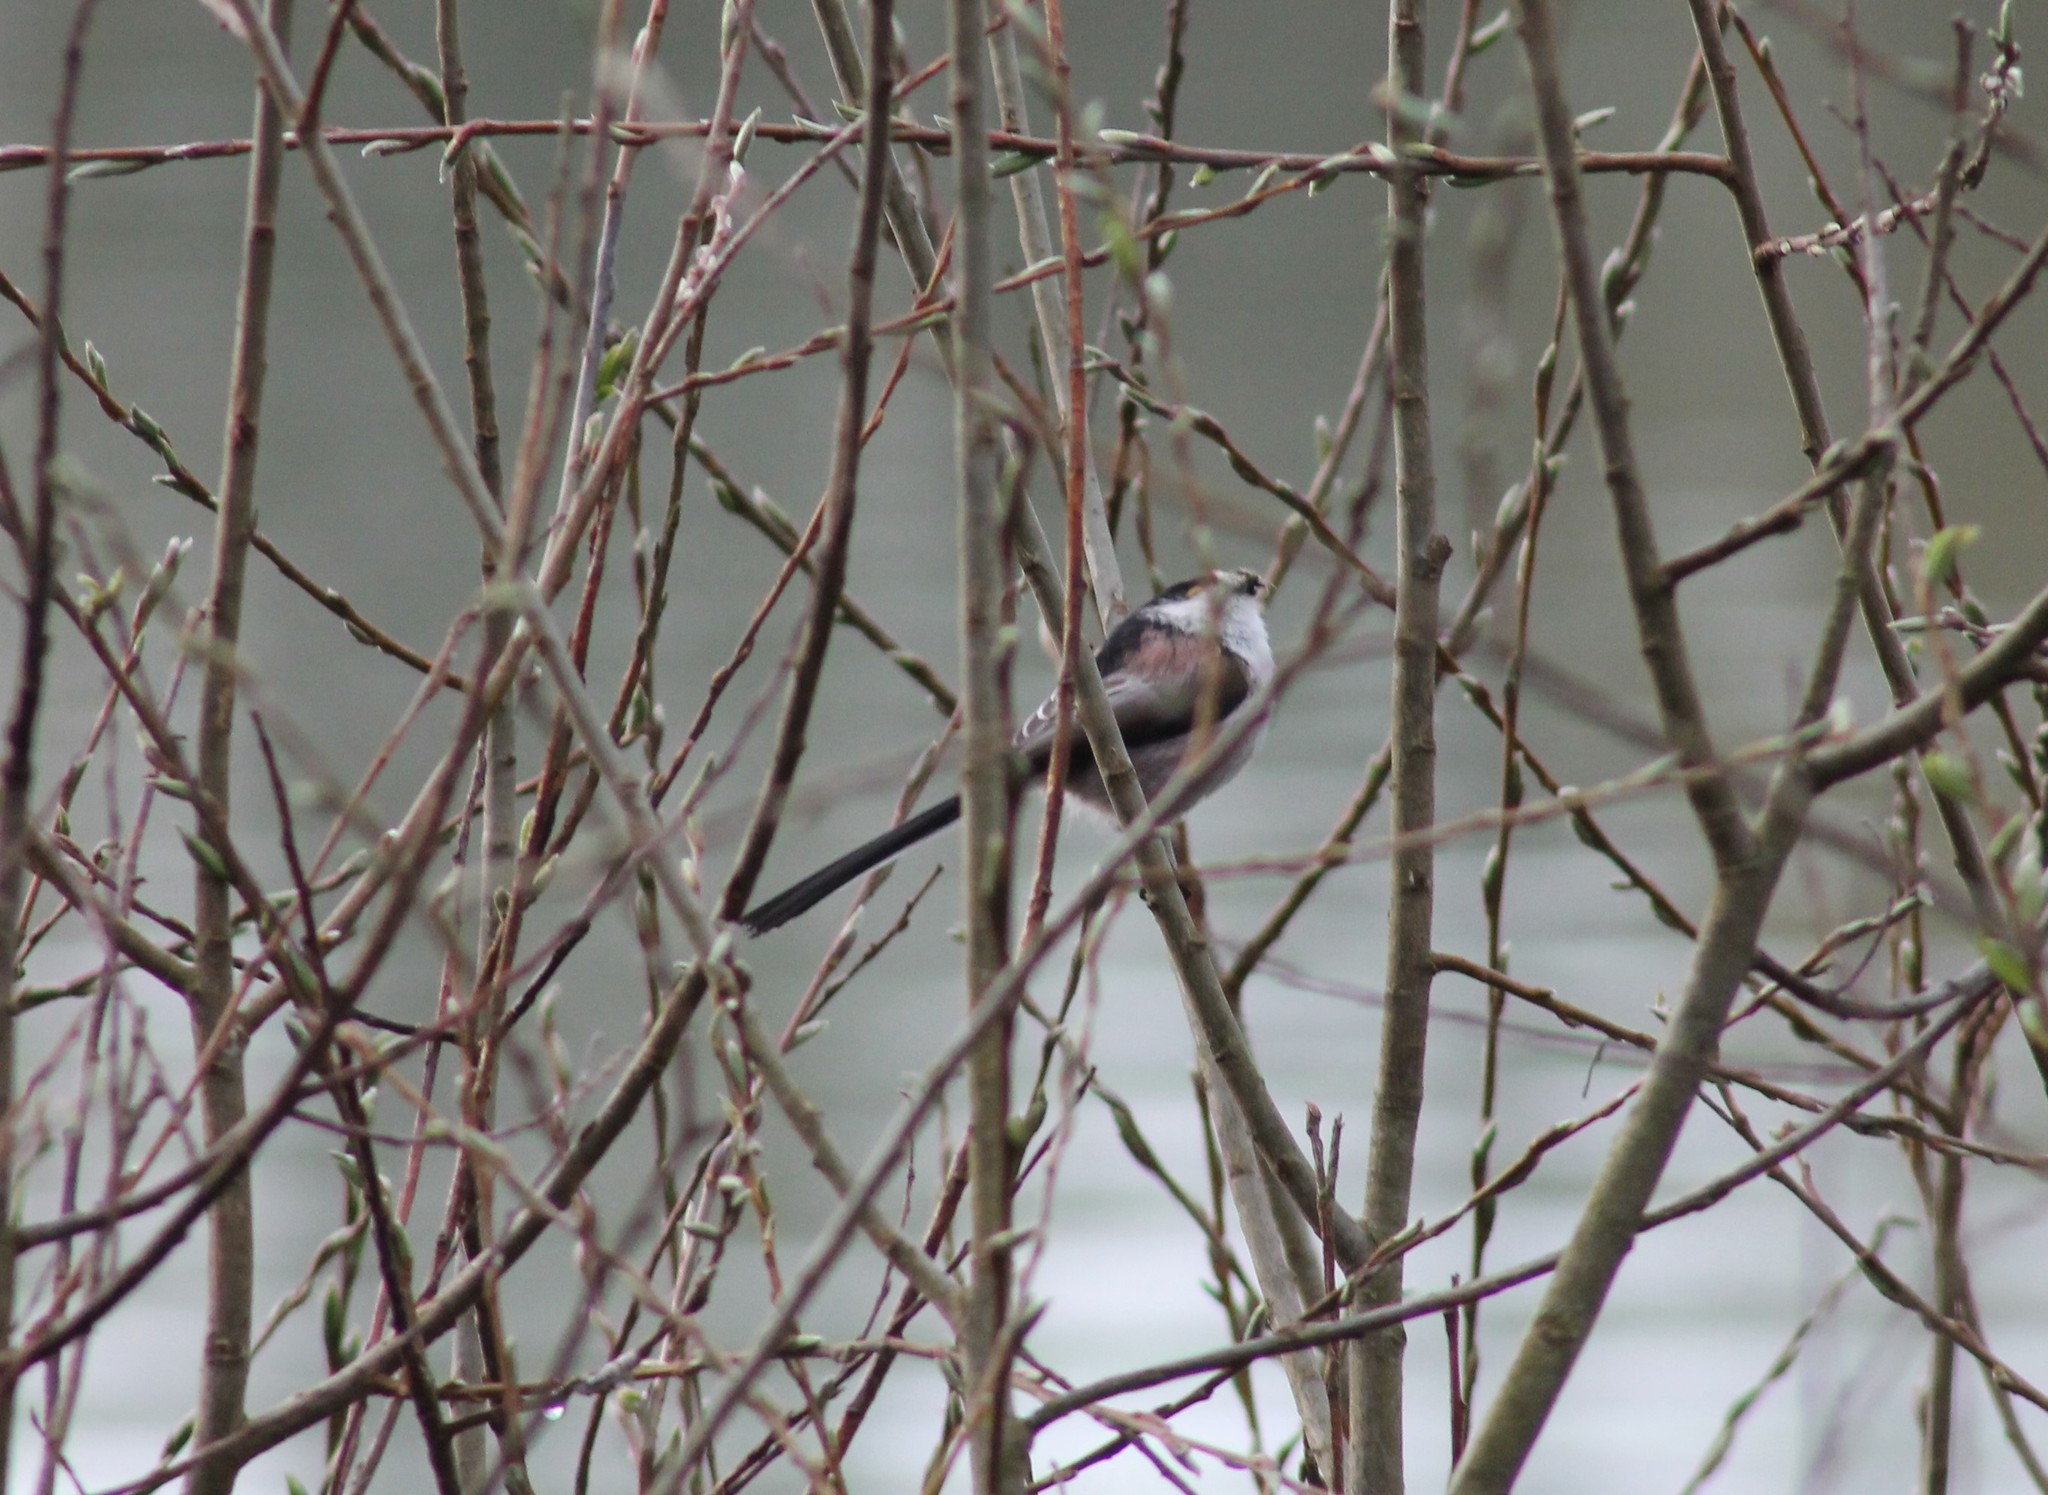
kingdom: Animalia
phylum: Chordata
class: Aves
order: Passeriformes
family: Aegithalidae
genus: Aegithalos
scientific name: Aegithalos caudatus
